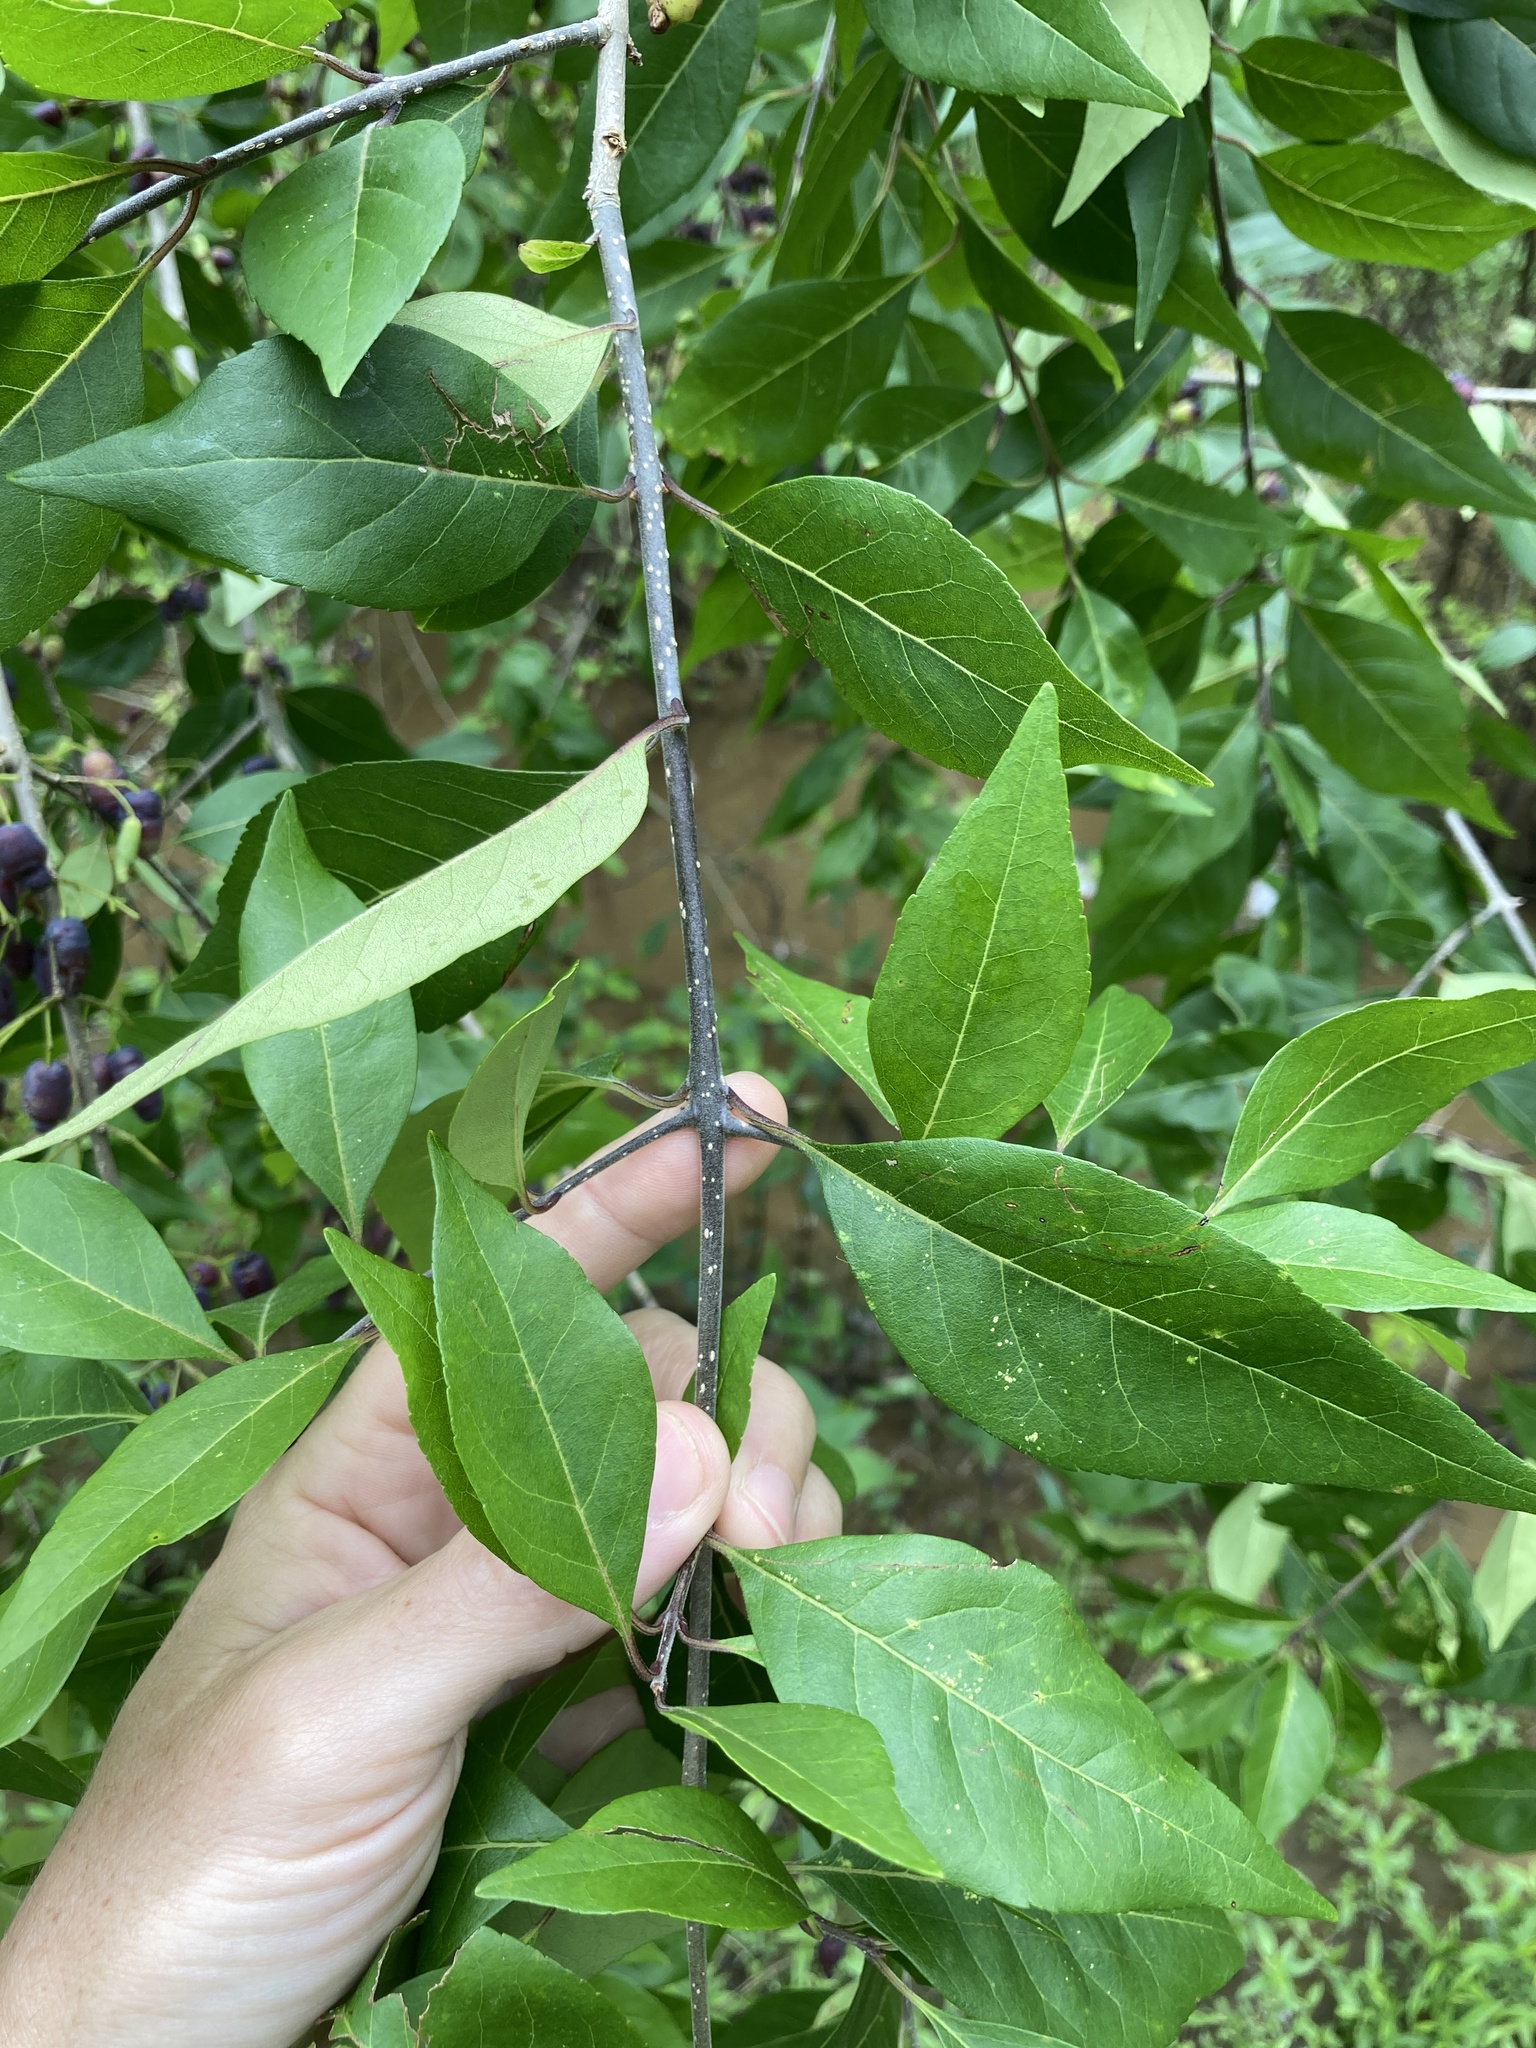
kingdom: Plantae
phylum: Tracheophyta
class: Magnoliopsida
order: Lamiales
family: Oleaceae
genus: Forestiera
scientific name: Forestiera acuminata
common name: Swamp-privet
